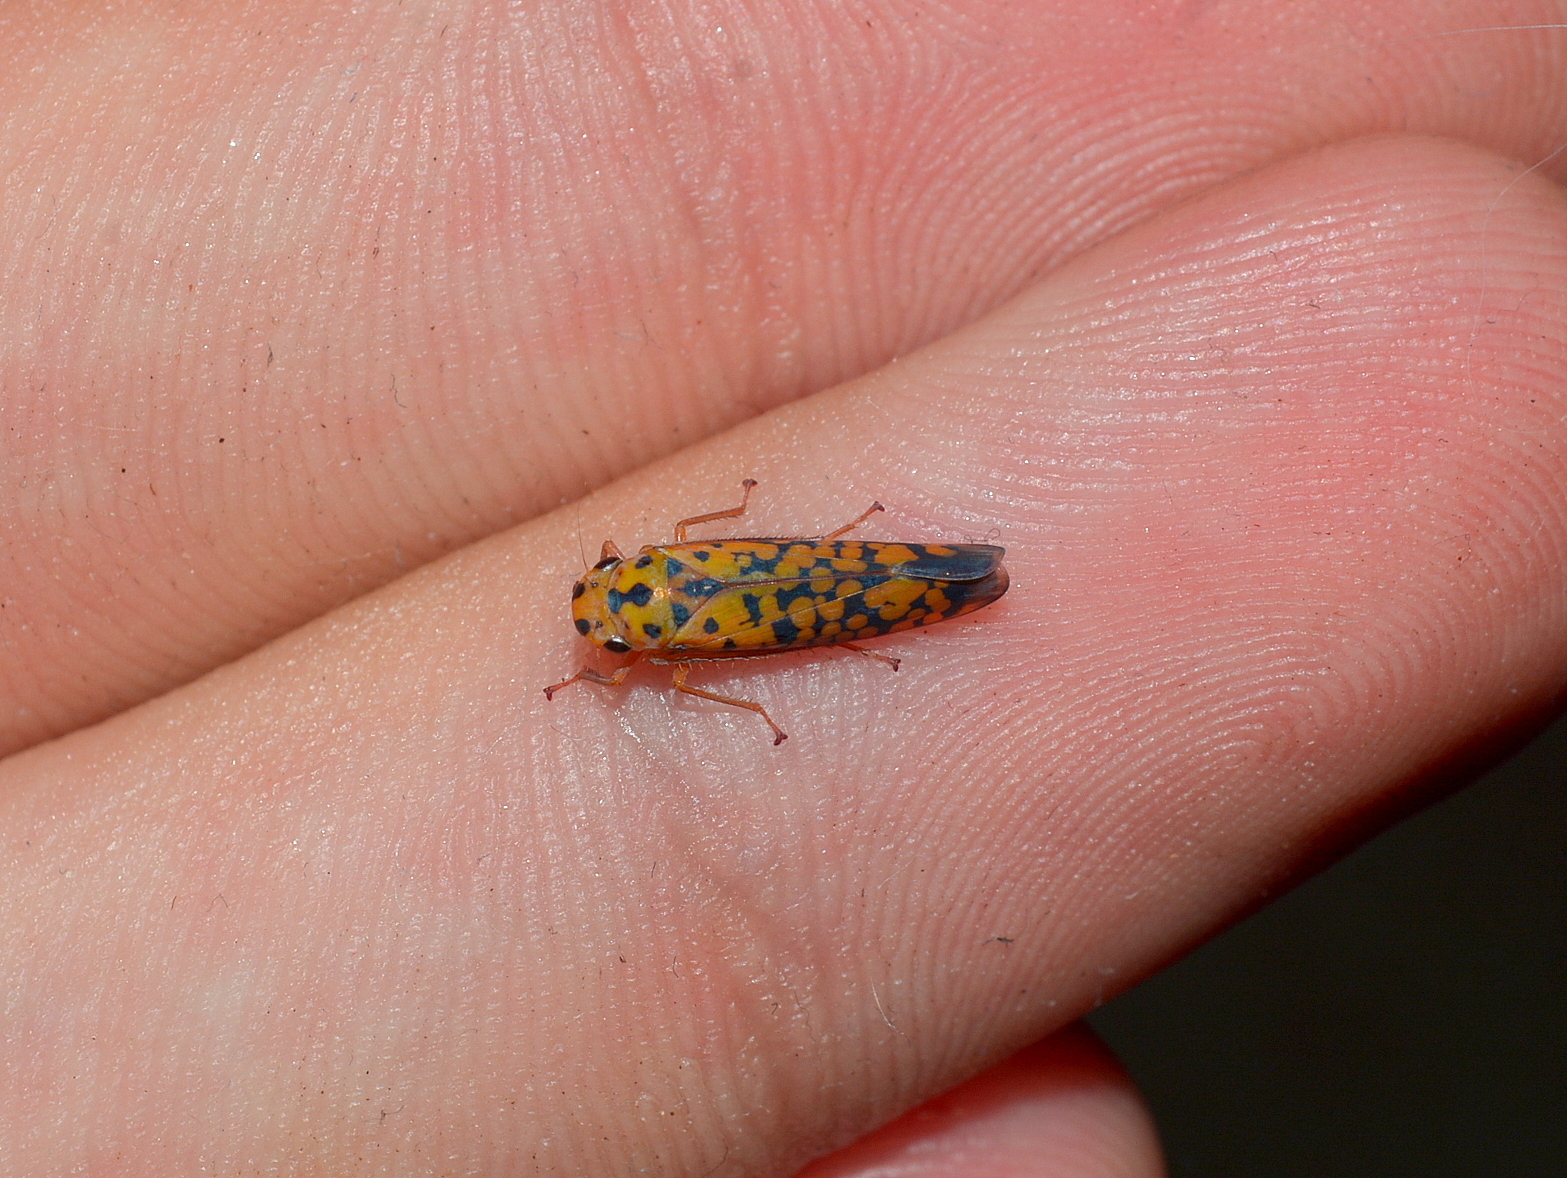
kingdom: Animalia
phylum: Arthropoda
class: Insecta
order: Hemiptera
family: Cicadellidae
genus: Pawiloma
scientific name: Pawiloma victima
